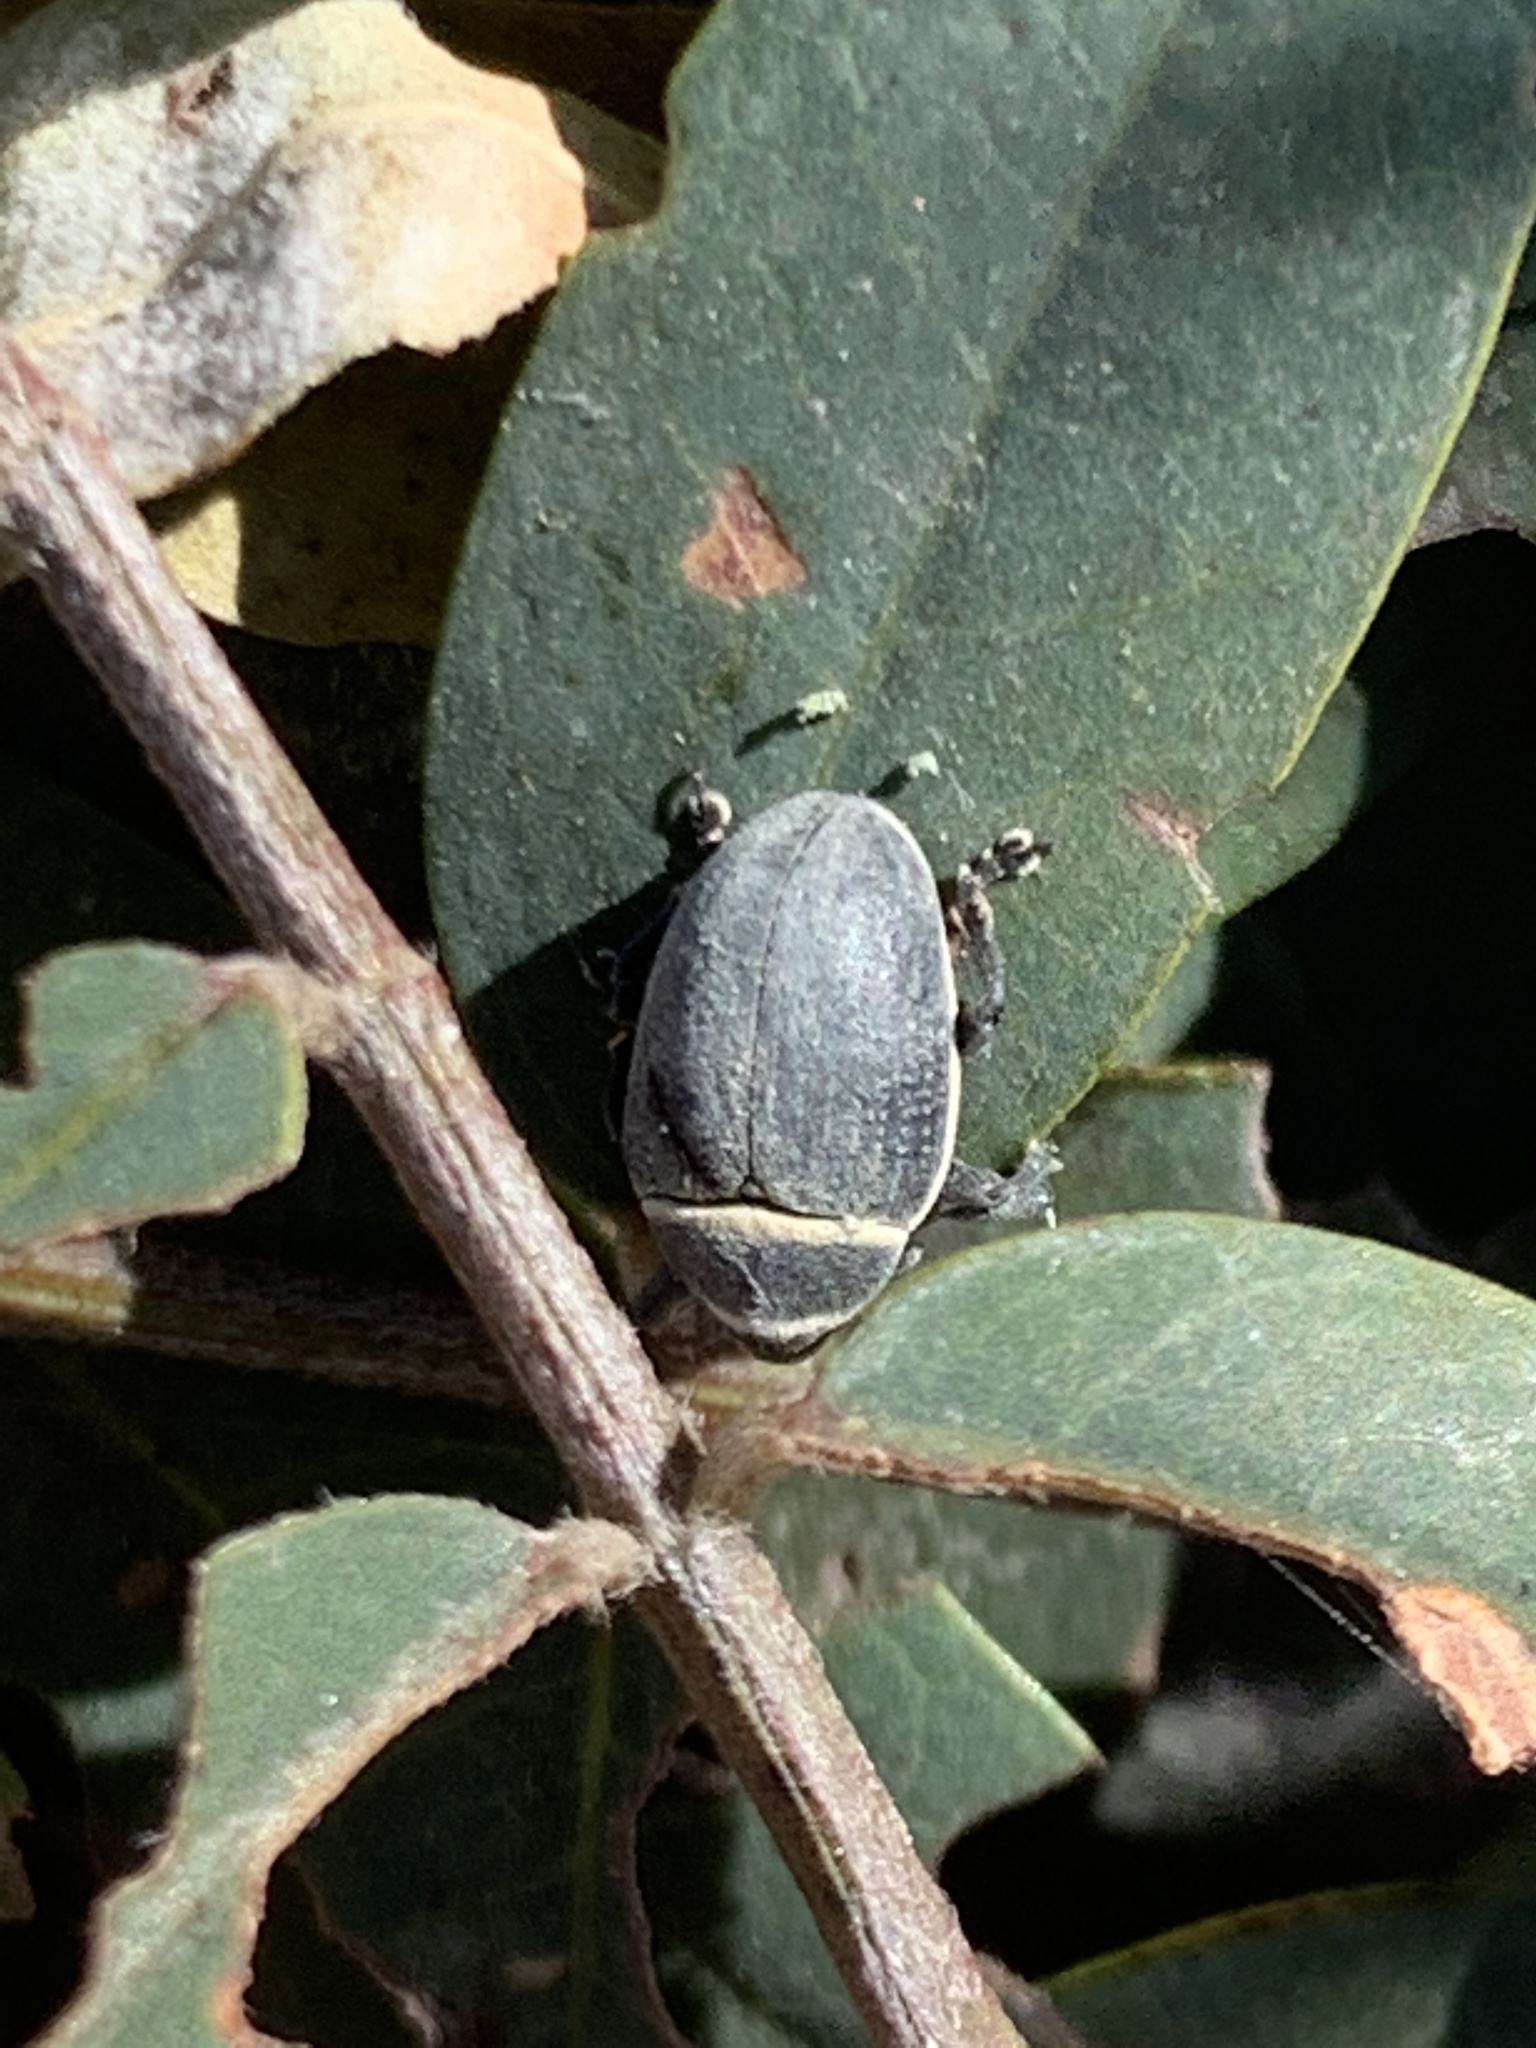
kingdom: Animalia
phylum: Arthropoda
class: Insecta
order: Coleoptera
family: Curculionidae
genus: Rhyssomatus
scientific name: Rhyssomatus marginatus
